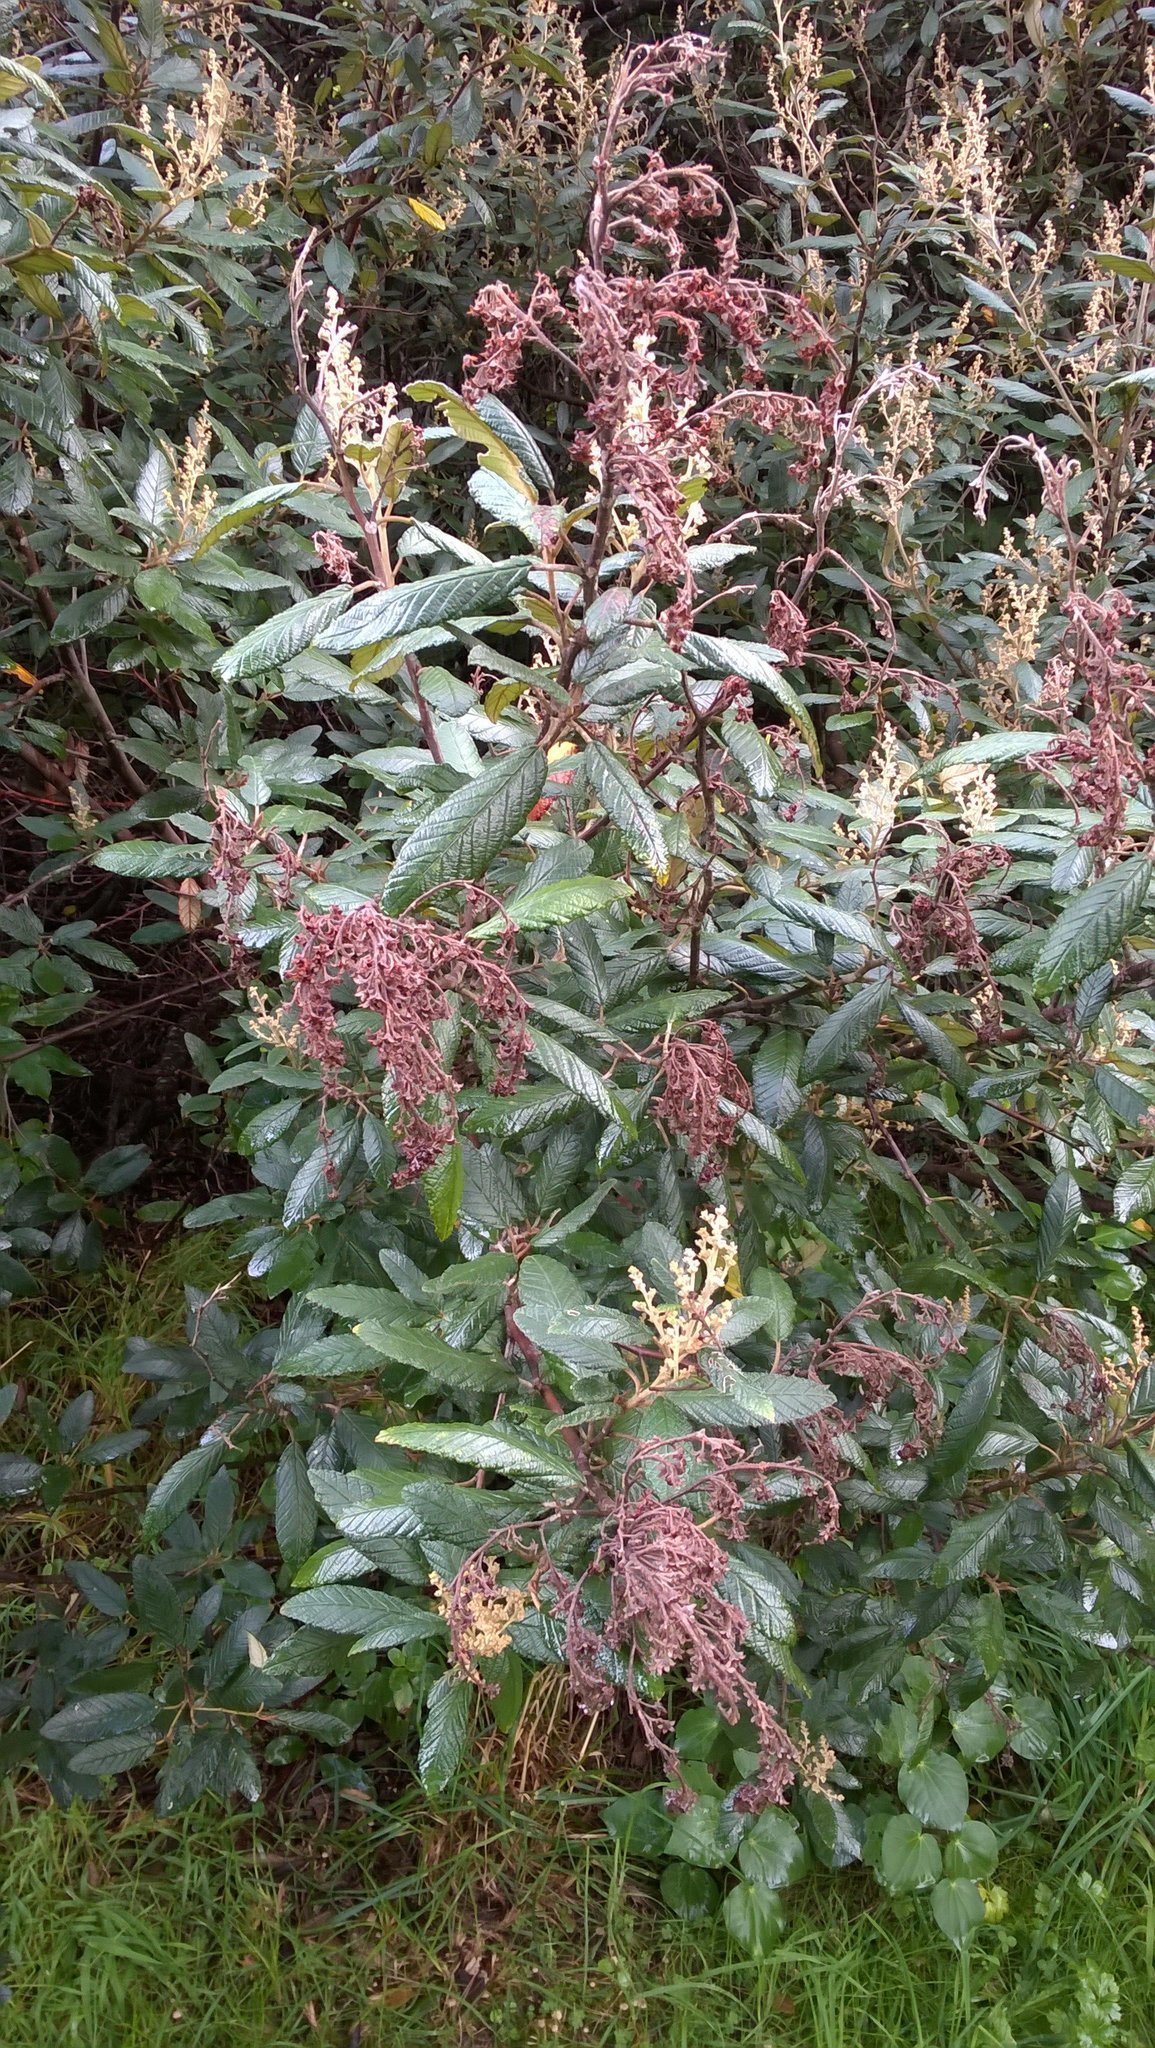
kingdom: Plantae
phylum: Tracheophyta
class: Magnoliopsida
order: Rosales
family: Rhamnaceae
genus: Pomaderris
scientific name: Pomaderris aspera
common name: Hazel pomaderris
